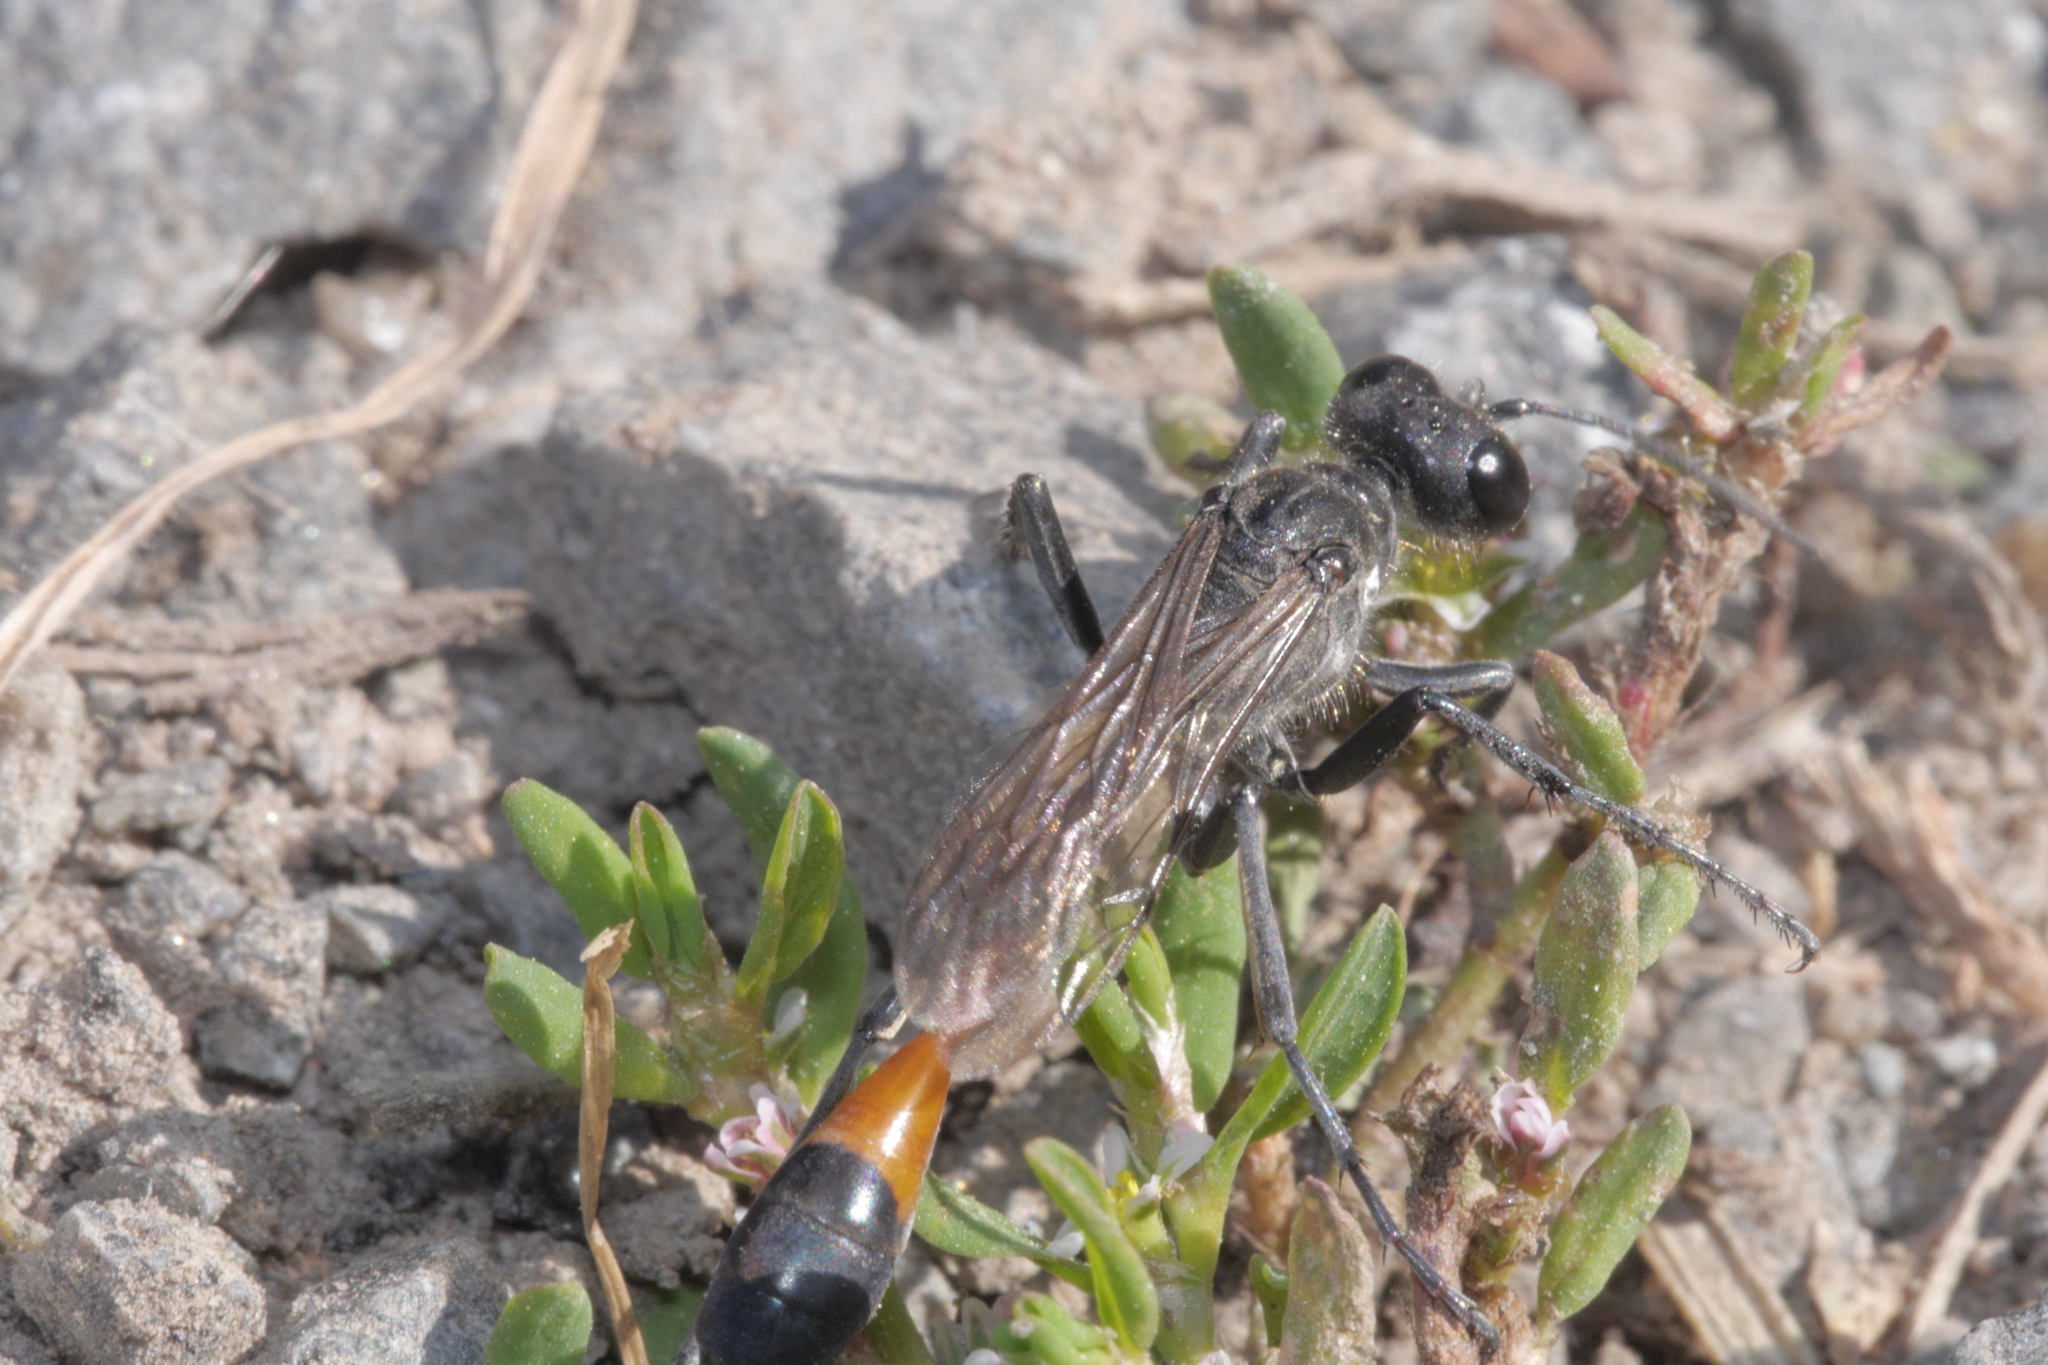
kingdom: Animalia
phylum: Arthropoda
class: Insecta
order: Hymenoptera
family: Sphecidae
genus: Ammophila
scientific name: Ammophila sabulosa
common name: Red banded sand wasp
